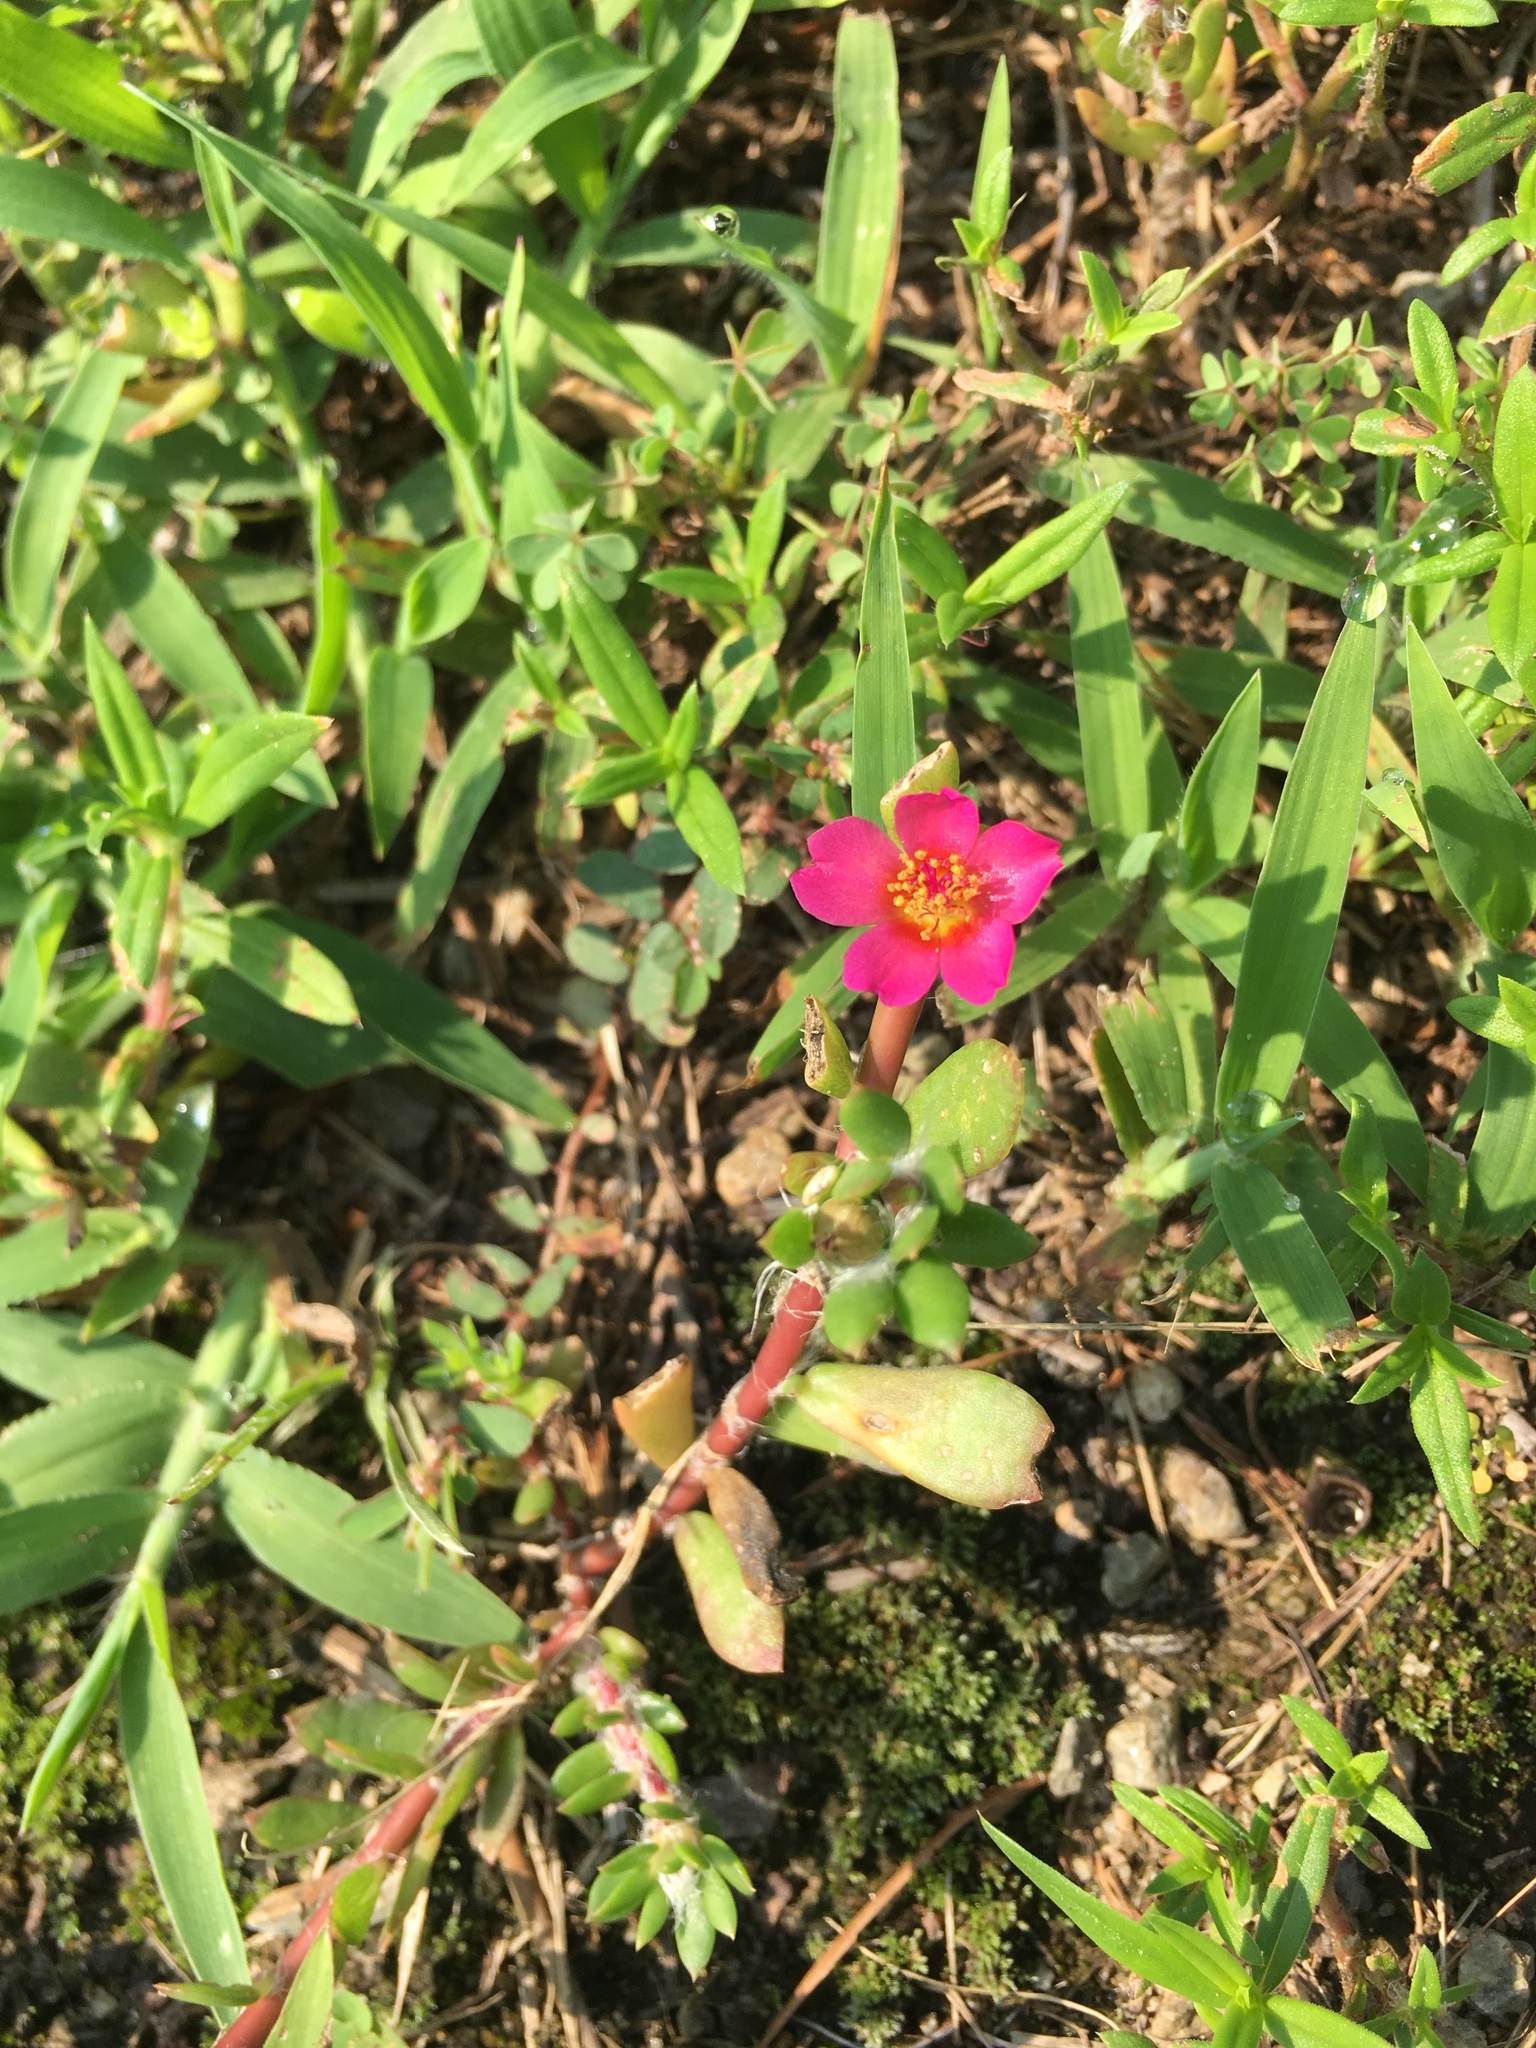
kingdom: Plantae
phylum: Tracheophyta
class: Magnoliopsida
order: Caryophyllales
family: Portulacaceae
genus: Portulaca
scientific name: Portulaca amilis
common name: Paraguayan purslane
